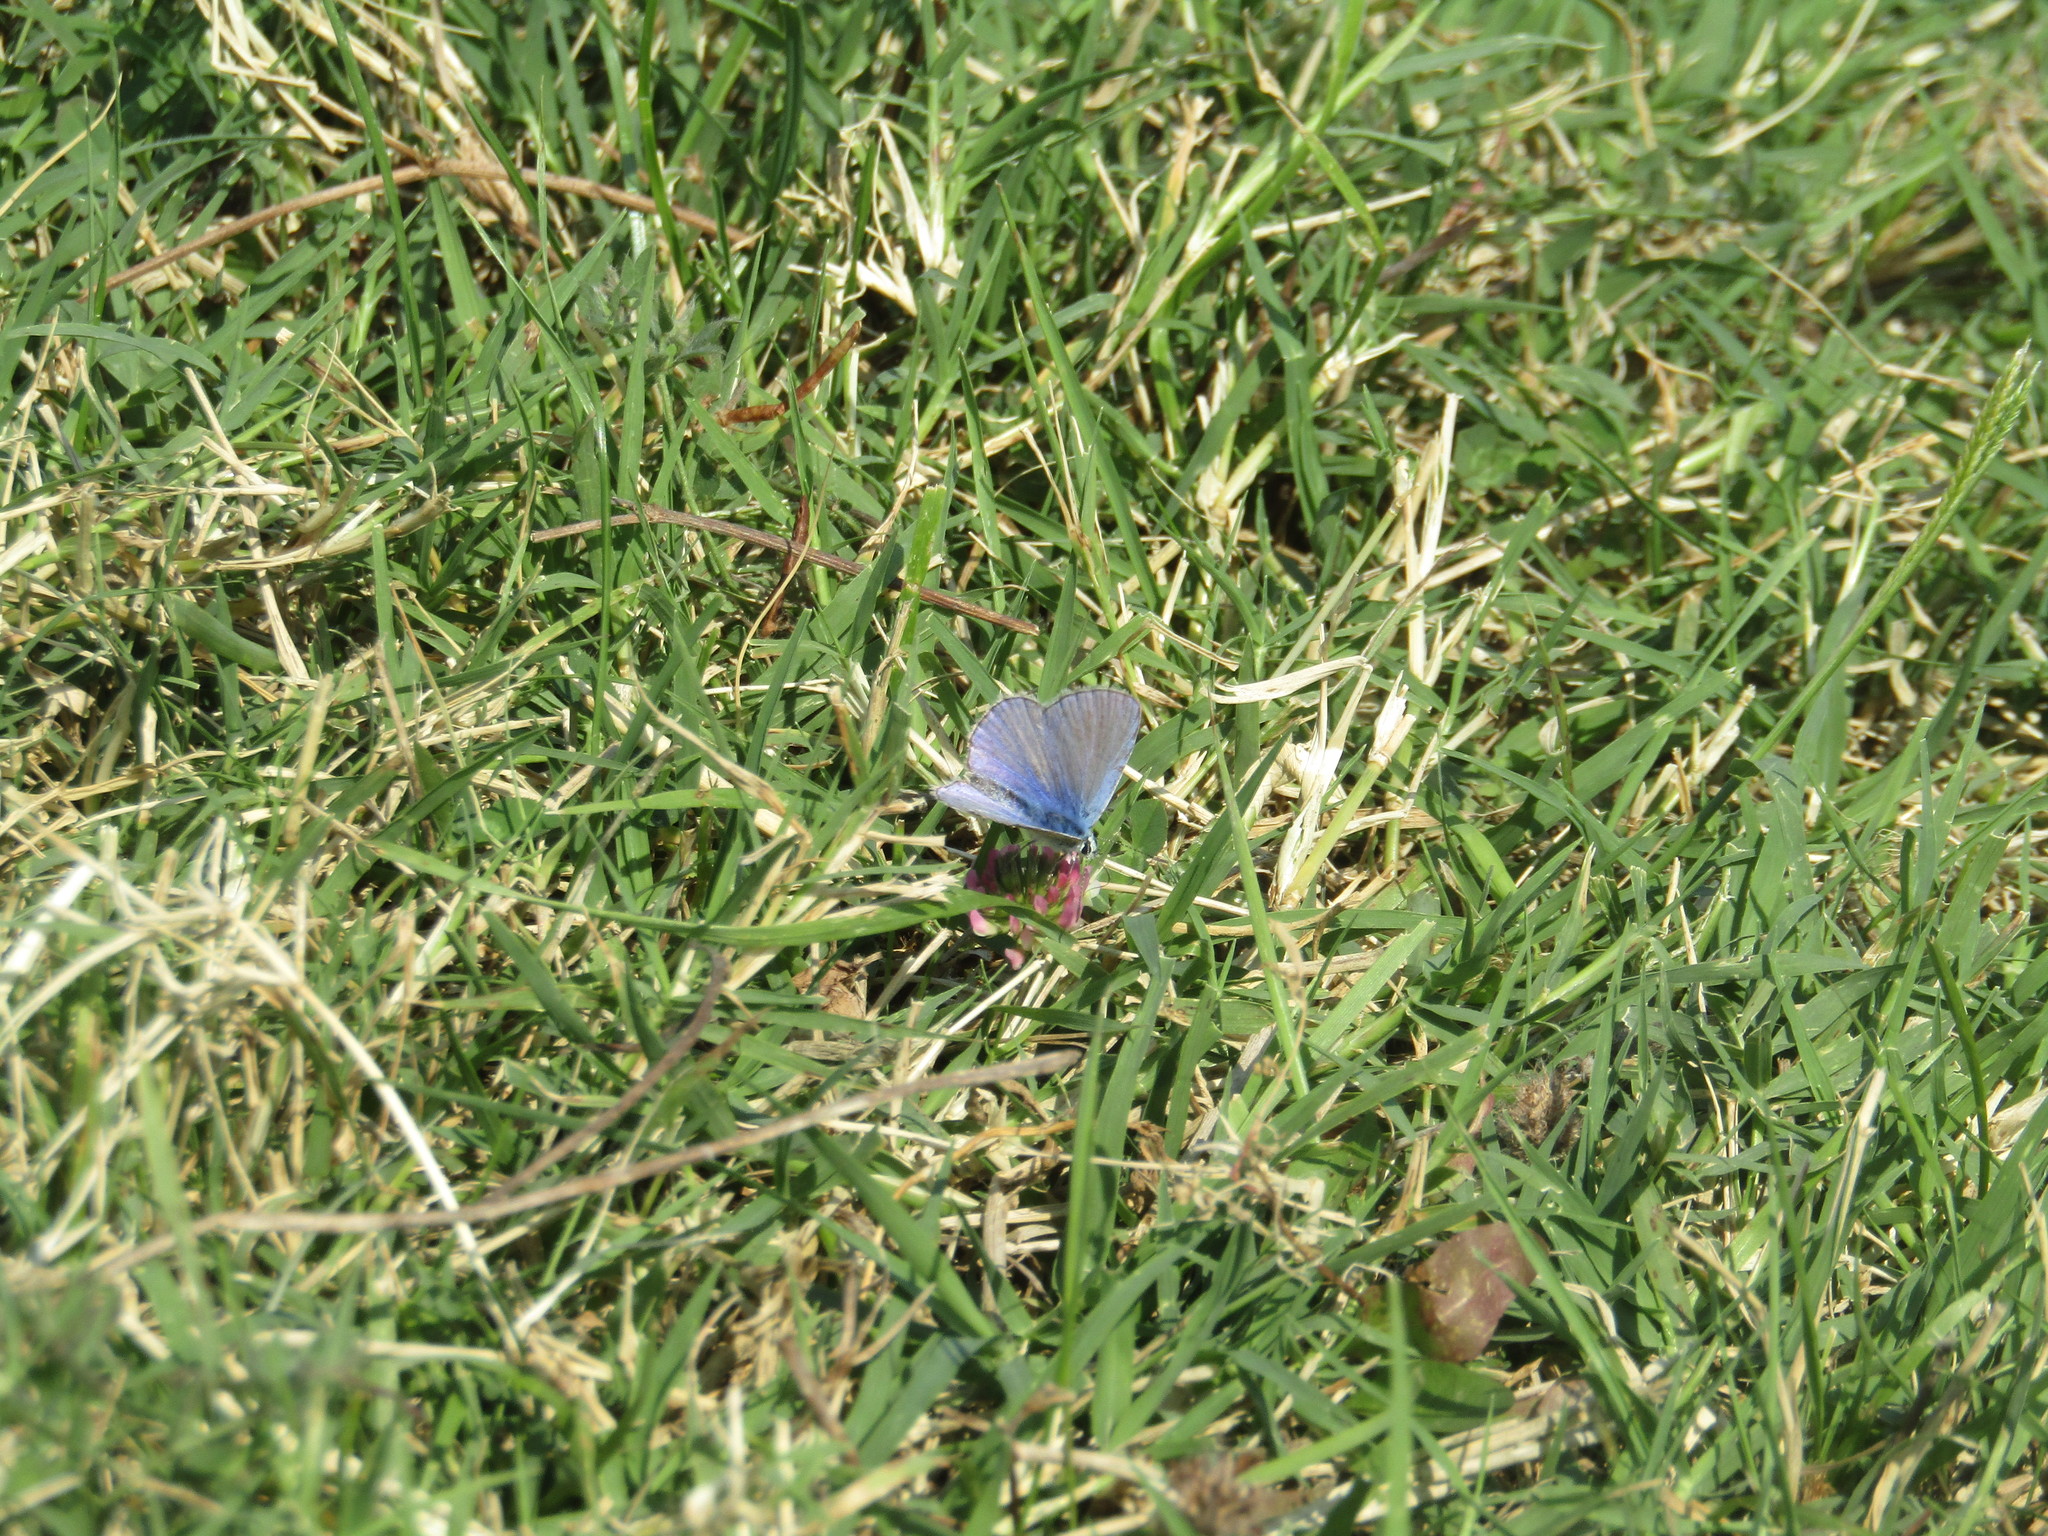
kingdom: Animalia
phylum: Arthropoda
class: Insecta
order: Lepidoptera
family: Lycaenidae
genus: Polyommatus
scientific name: Polyommatus icarus
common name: Common blue
